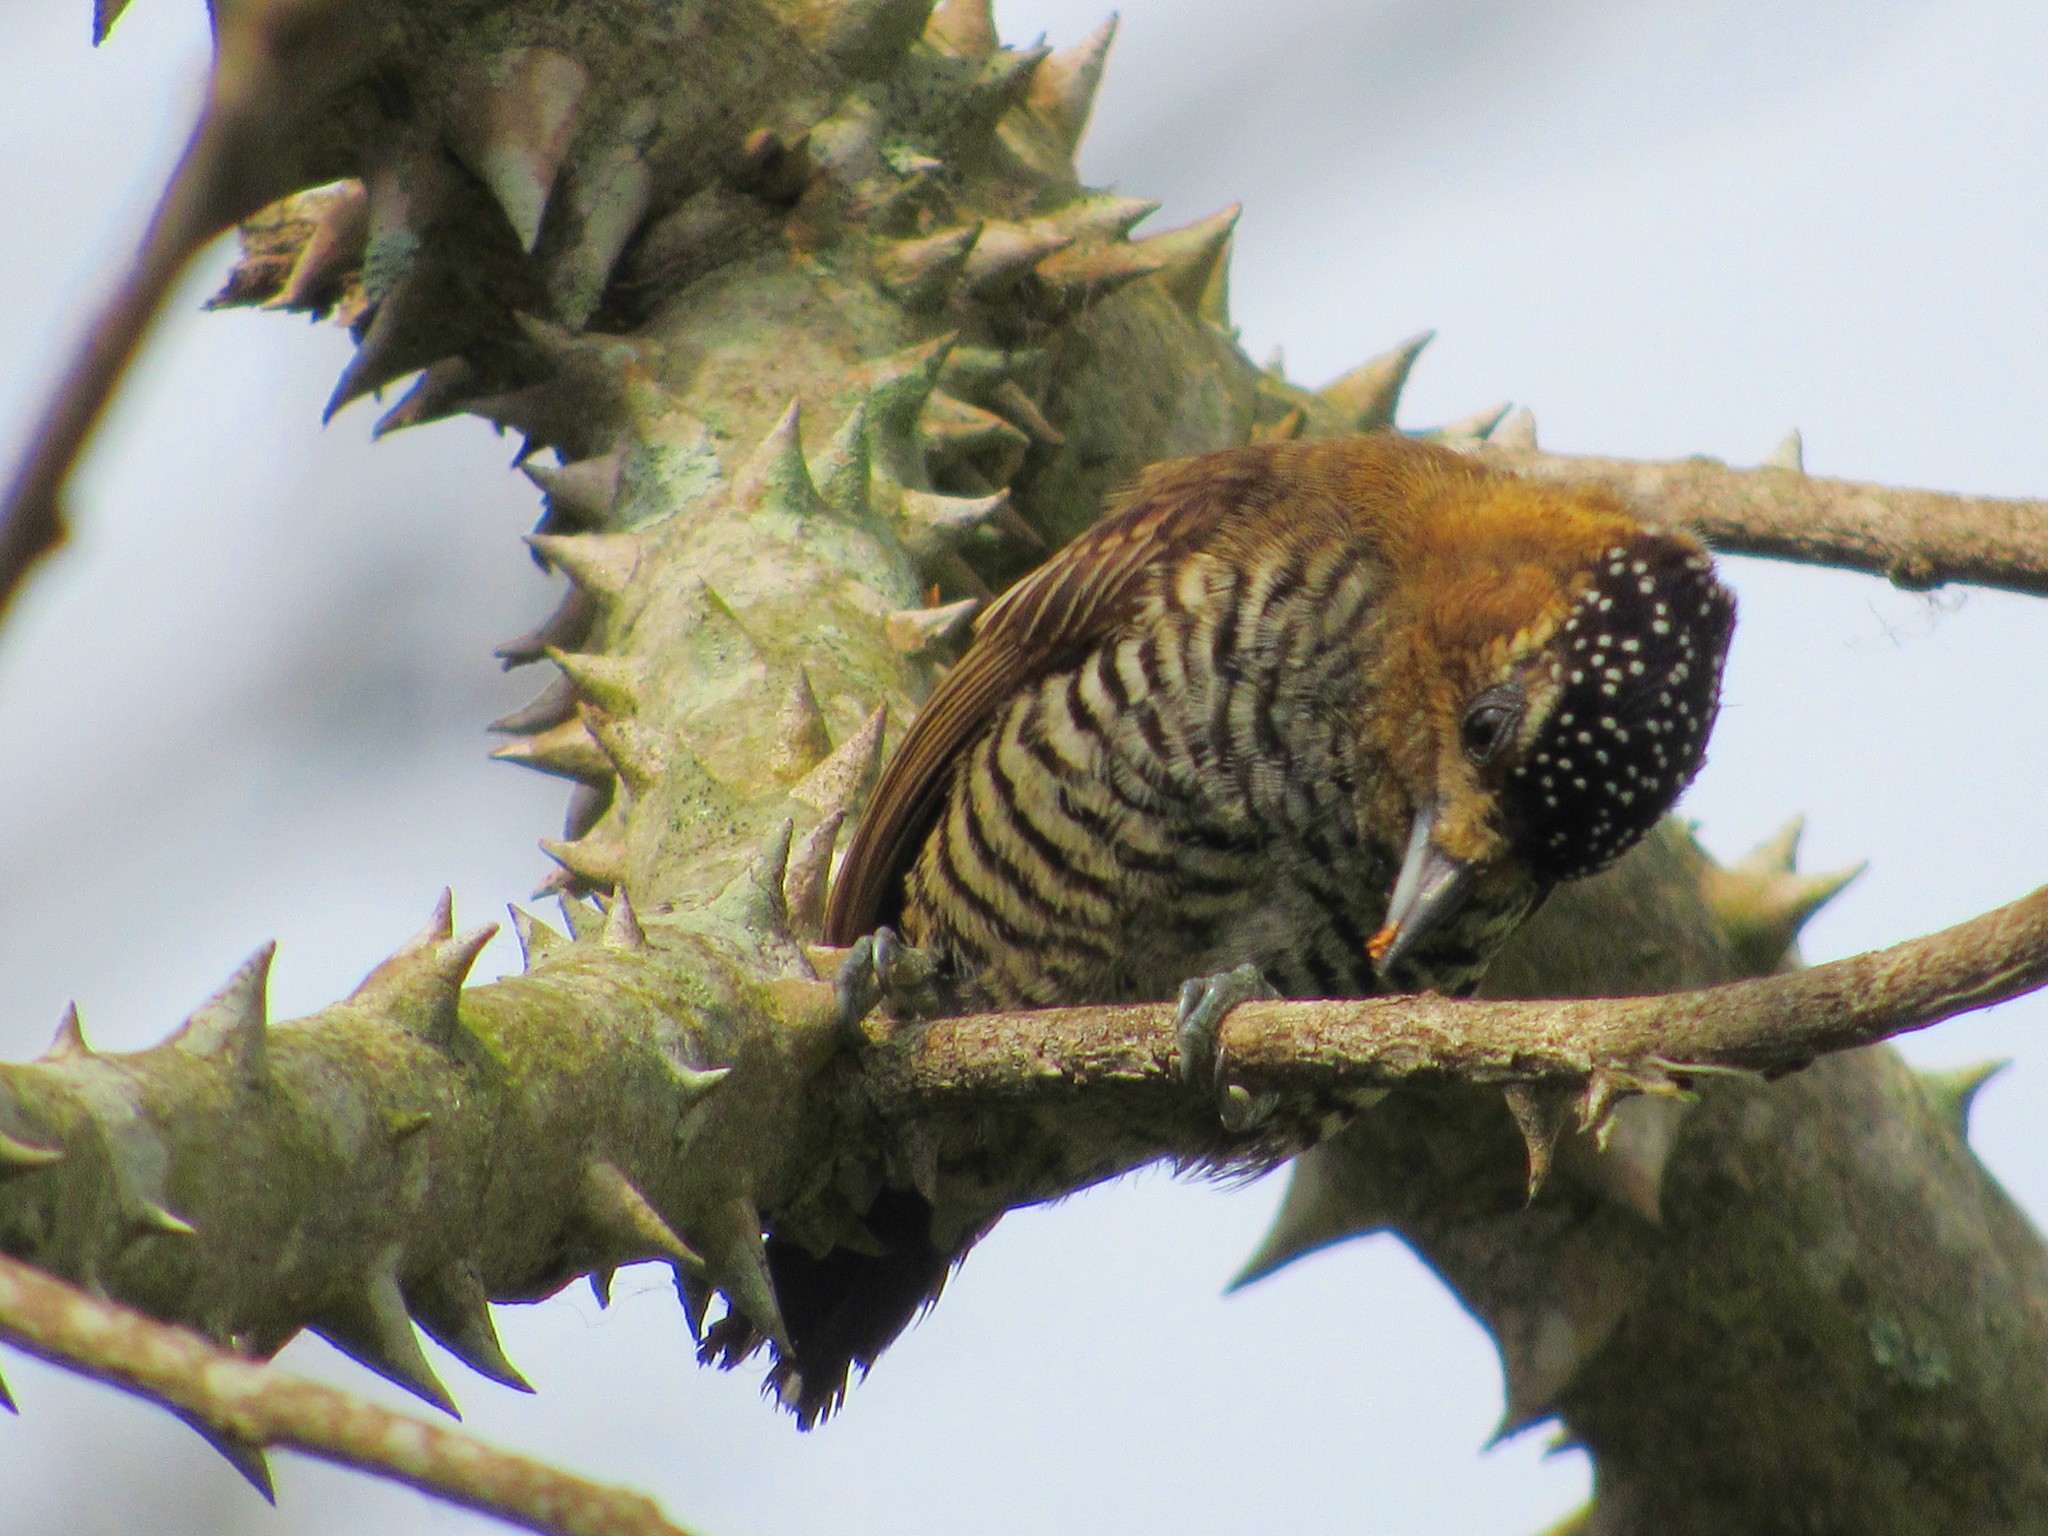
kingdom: Animalia
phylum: Chordata
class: Aves
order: Piciformes
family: Picidae
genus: Picumnus
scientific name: Picumnus temminckii
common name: Ochre-collared piculet
